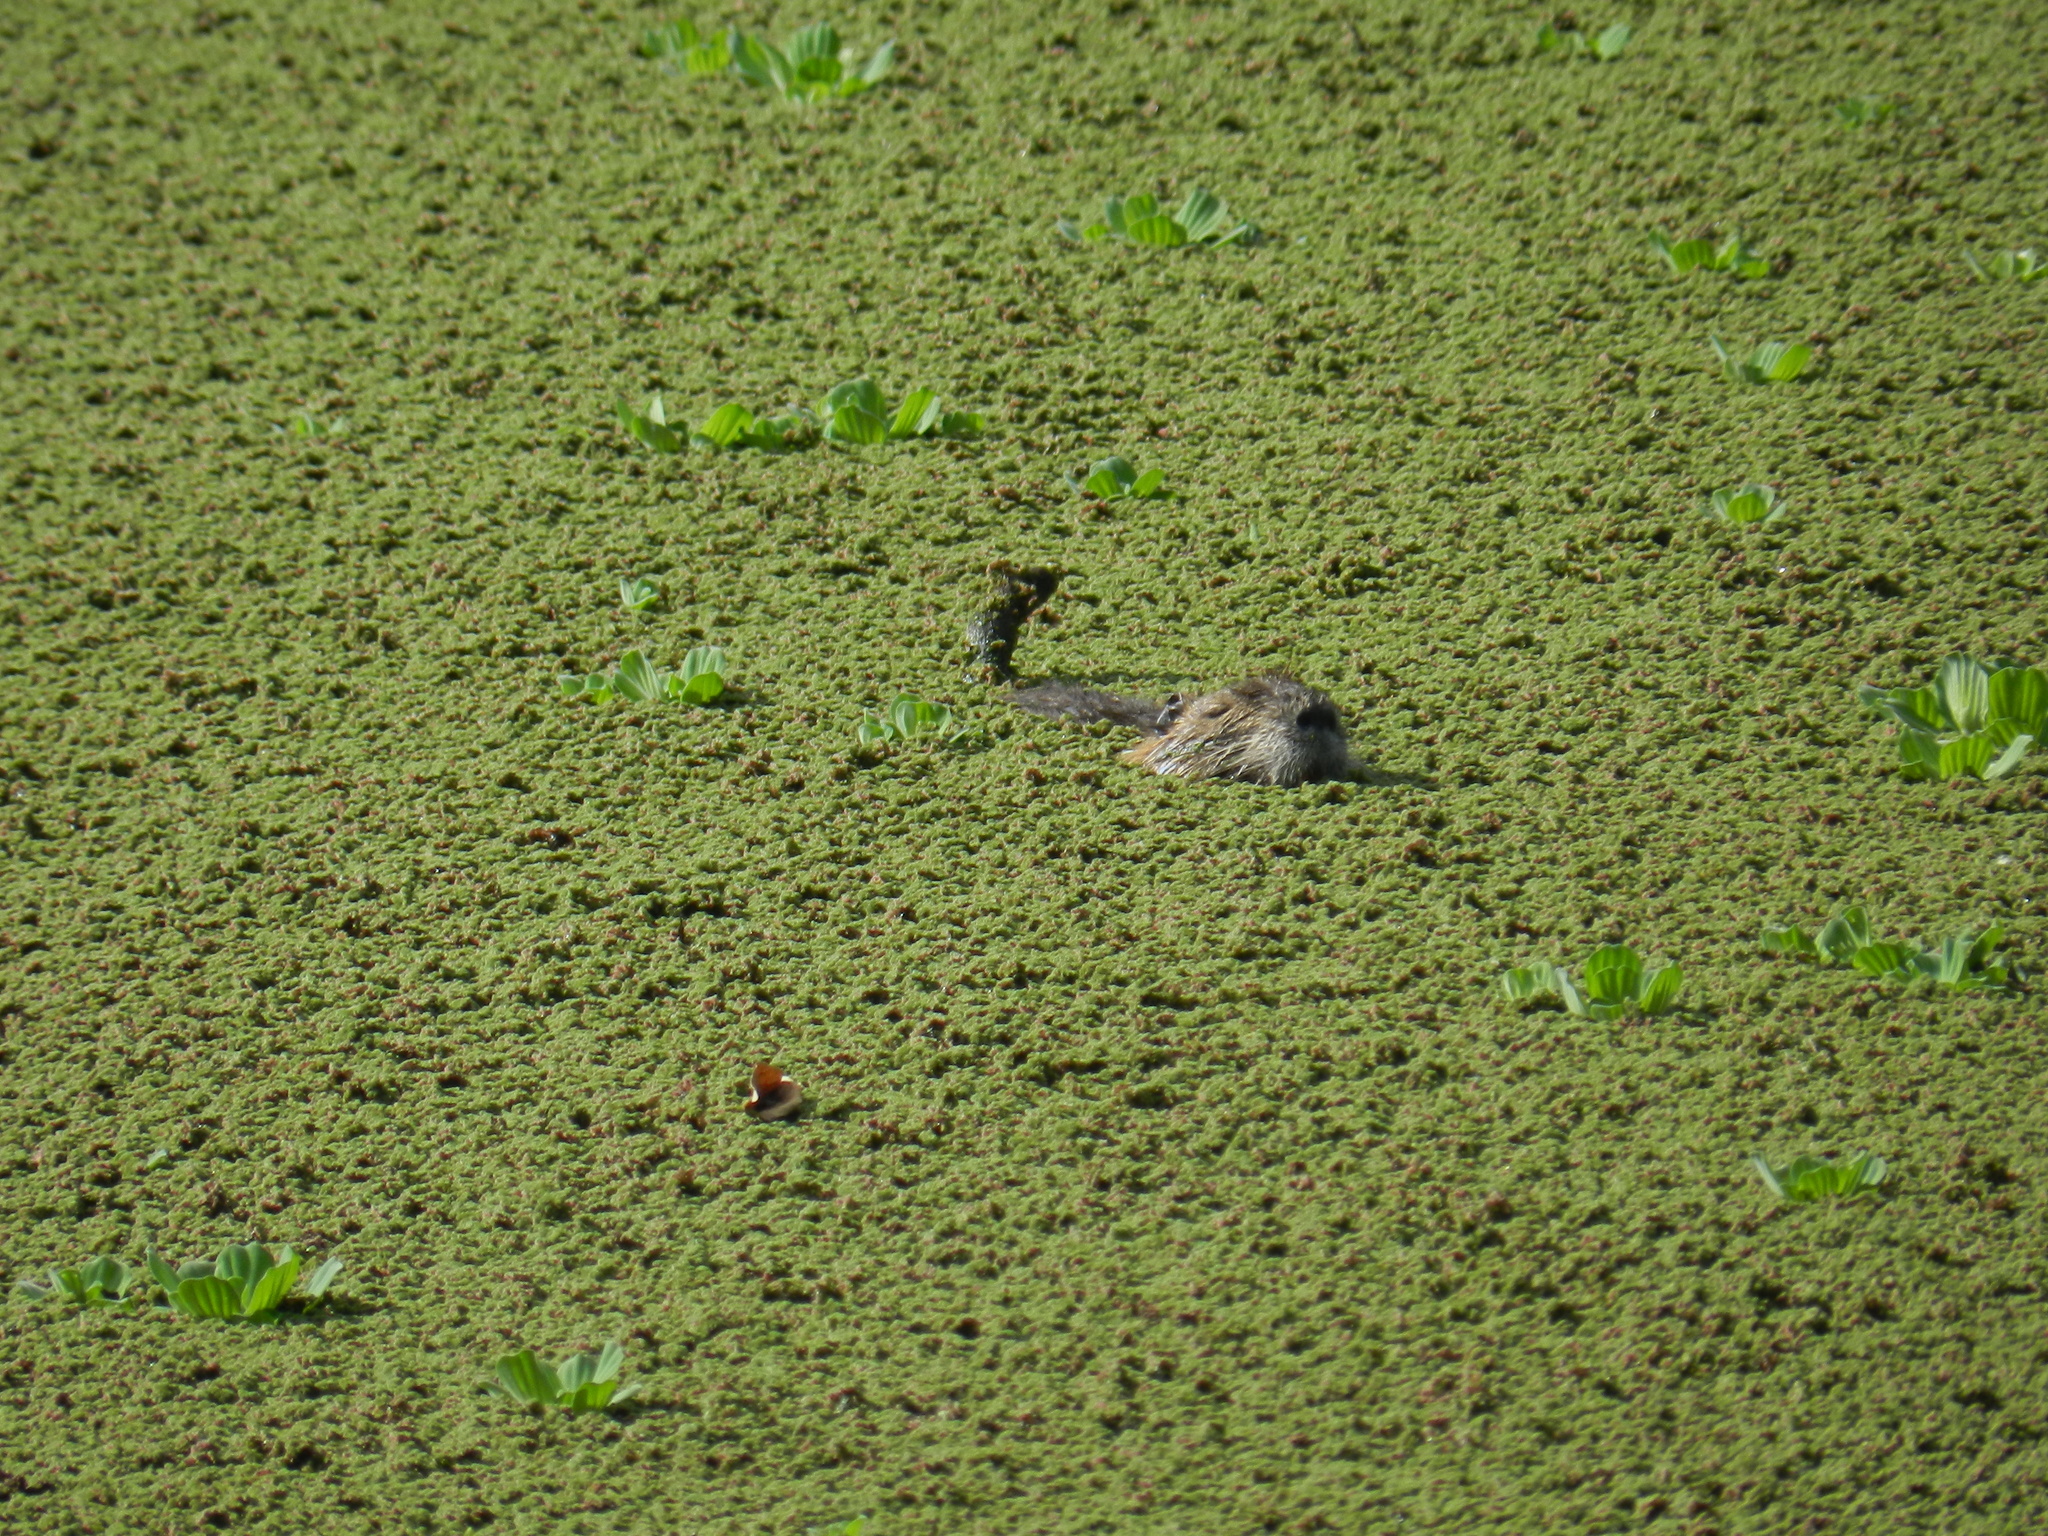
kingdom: Animalia
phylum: Chordata
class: Mammalia
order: Rodentia
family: Myocastoridae
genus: Myocastor
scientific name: Myocastor coypus
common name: Coypu
